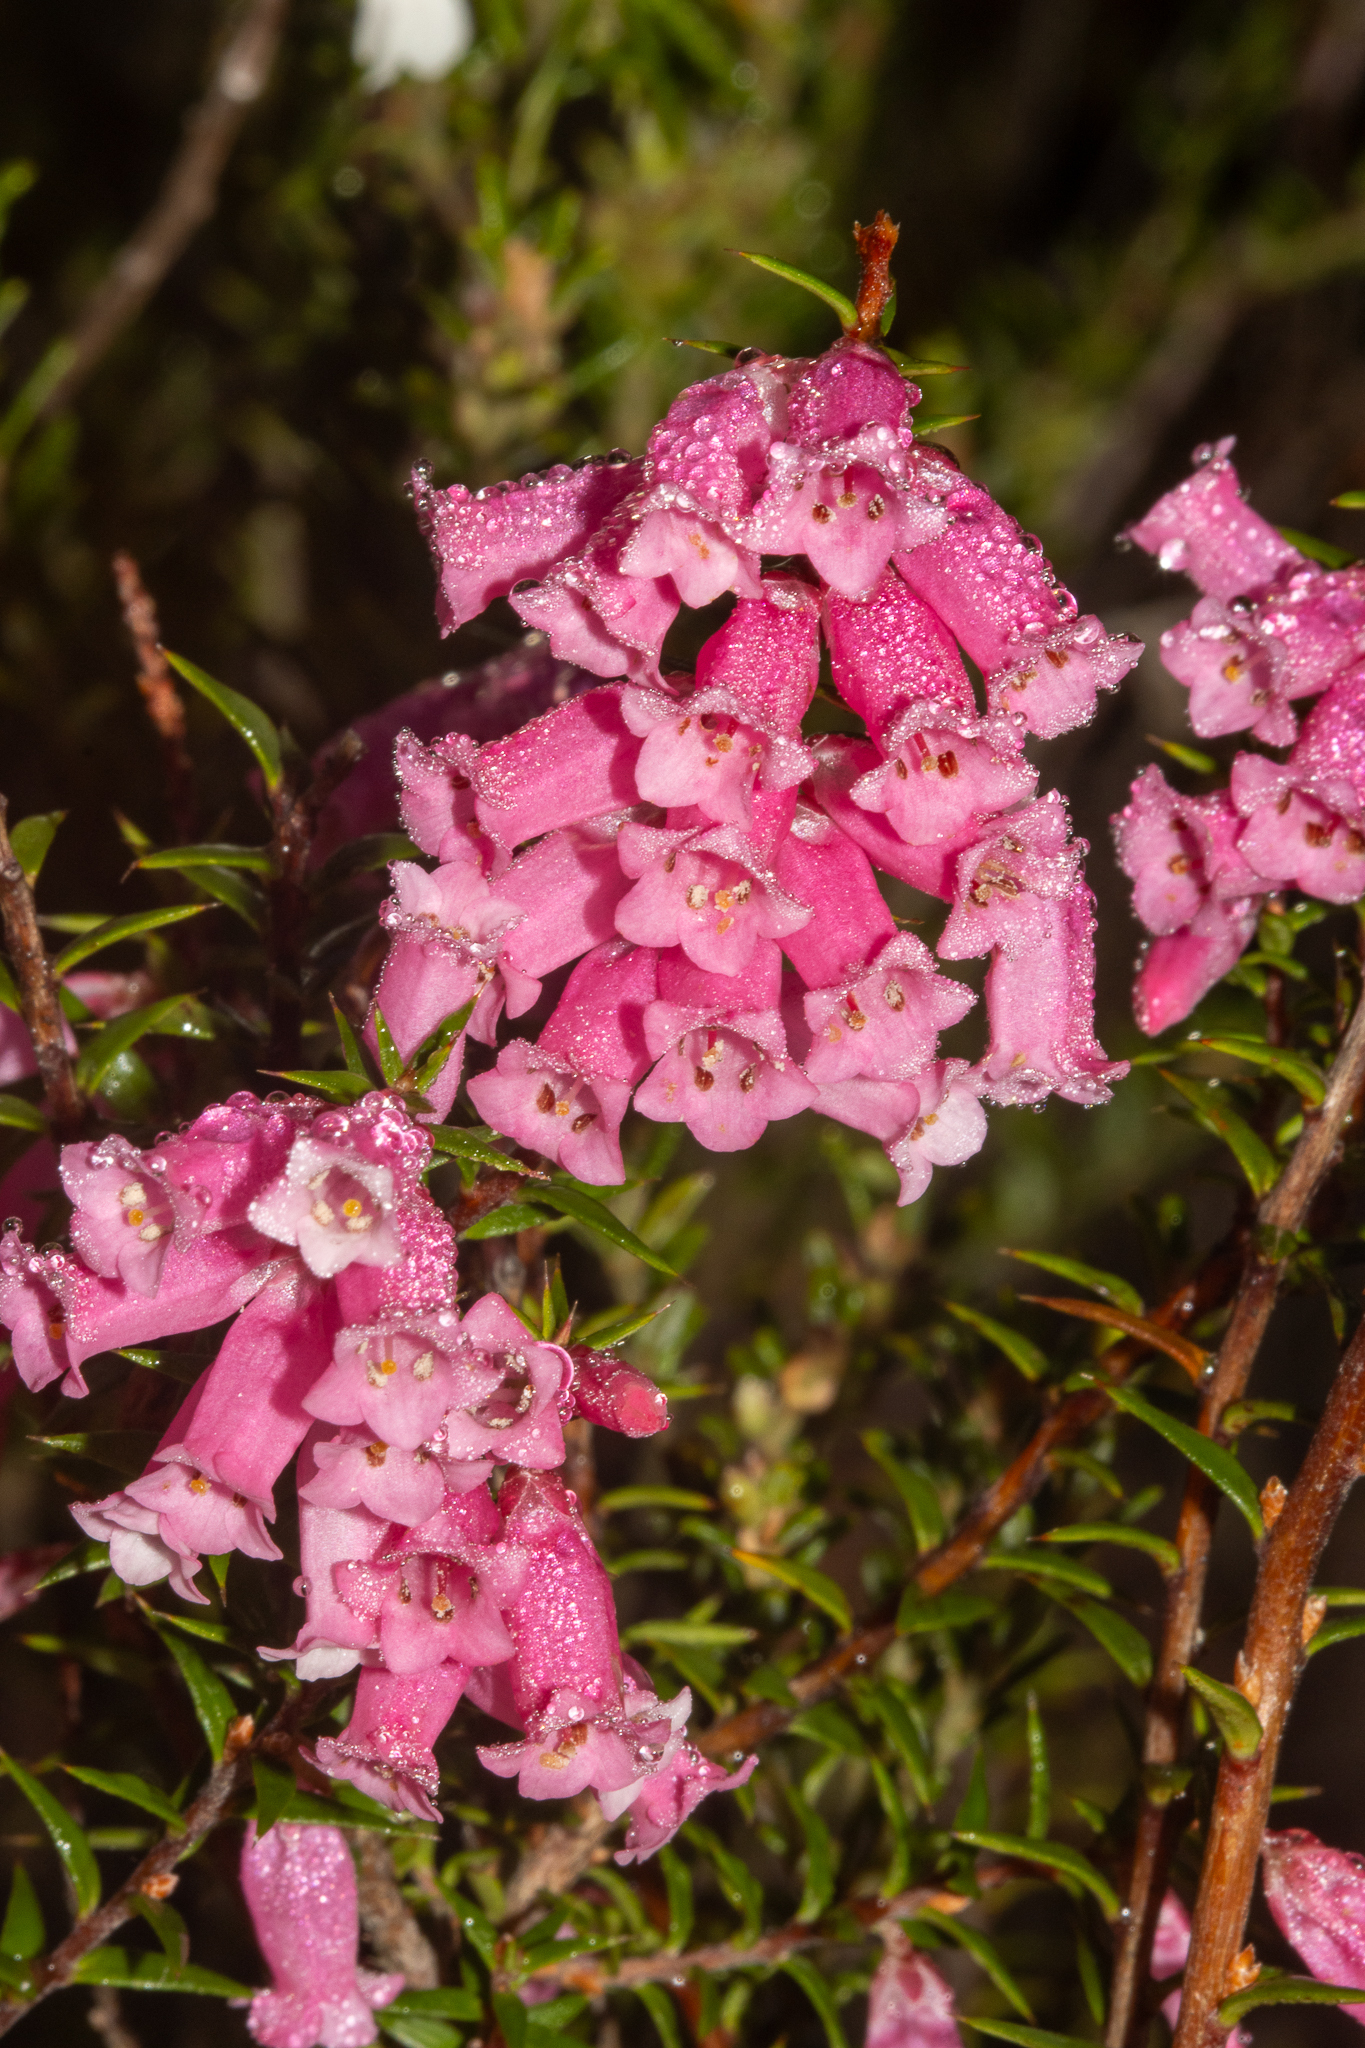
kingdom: Plantae
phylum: Tracheophyta
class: Magnoliopsida
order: Ericales
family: Ericaceae
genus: Epacris
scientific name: Epacris impressa
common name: Common-heath
